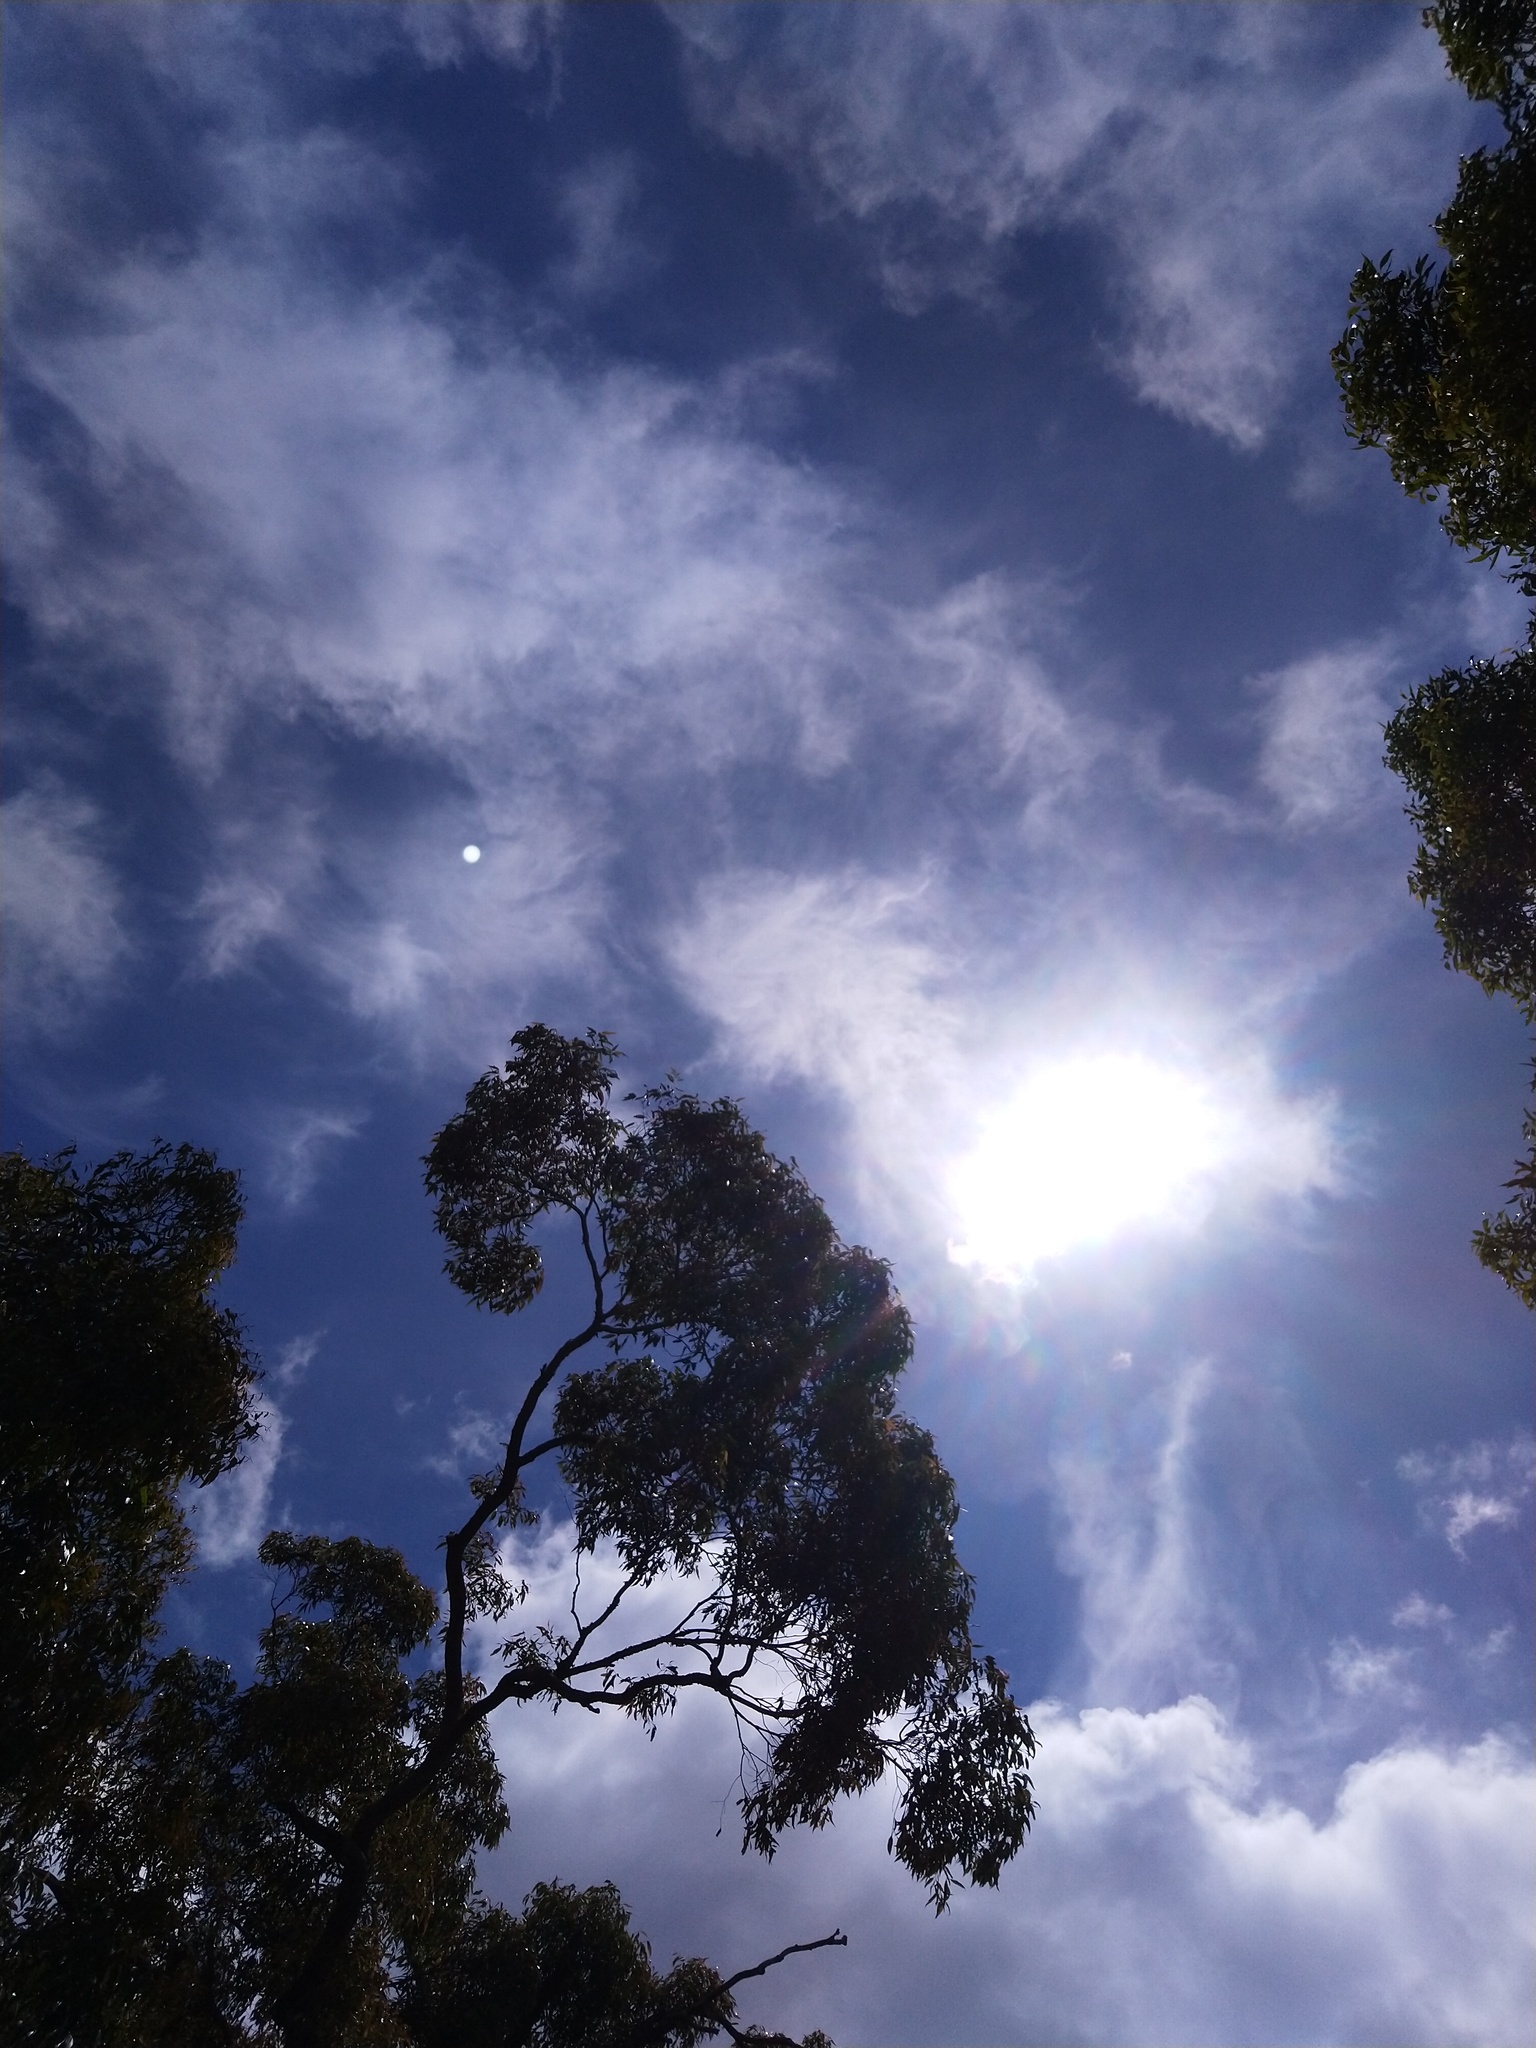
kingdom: Plantae
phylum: Tracheophyta
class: Liliopsida
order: Asparagales
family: Orchidaceae
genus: Cryptostylis
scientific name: Cryptostylis subulata
